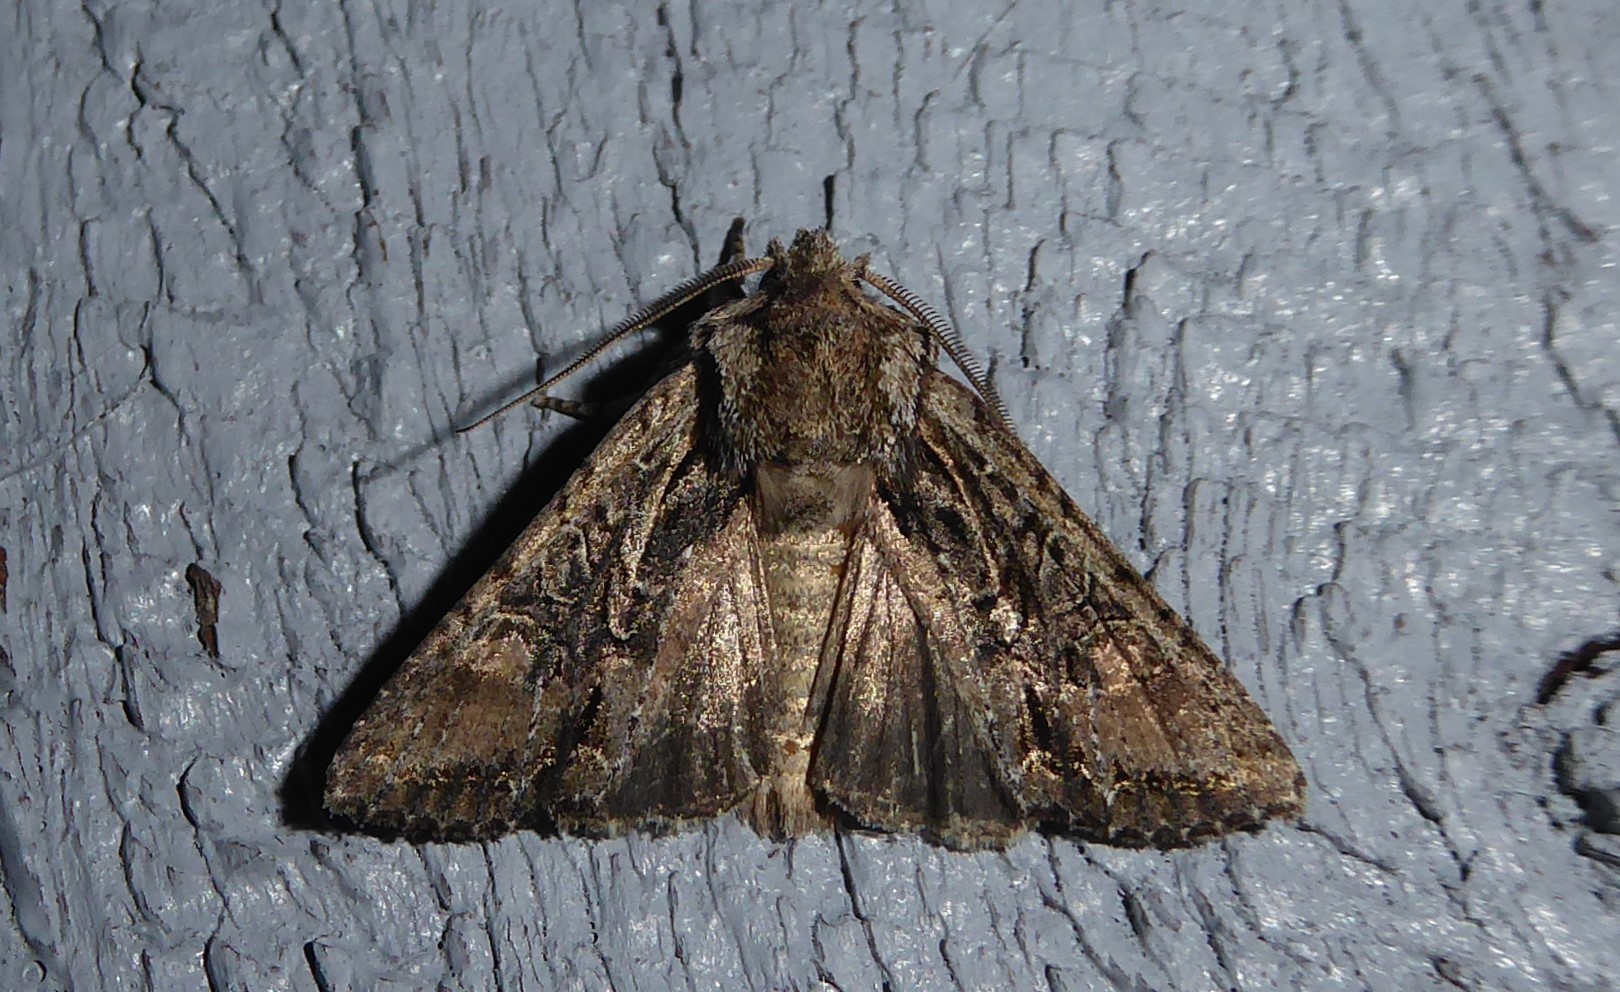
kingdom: Animalia
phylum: Arthropoda
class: Insecta
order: Lepidoptera
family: Noctuidae
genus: Ichneutica
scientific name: Ichneutica mutans
